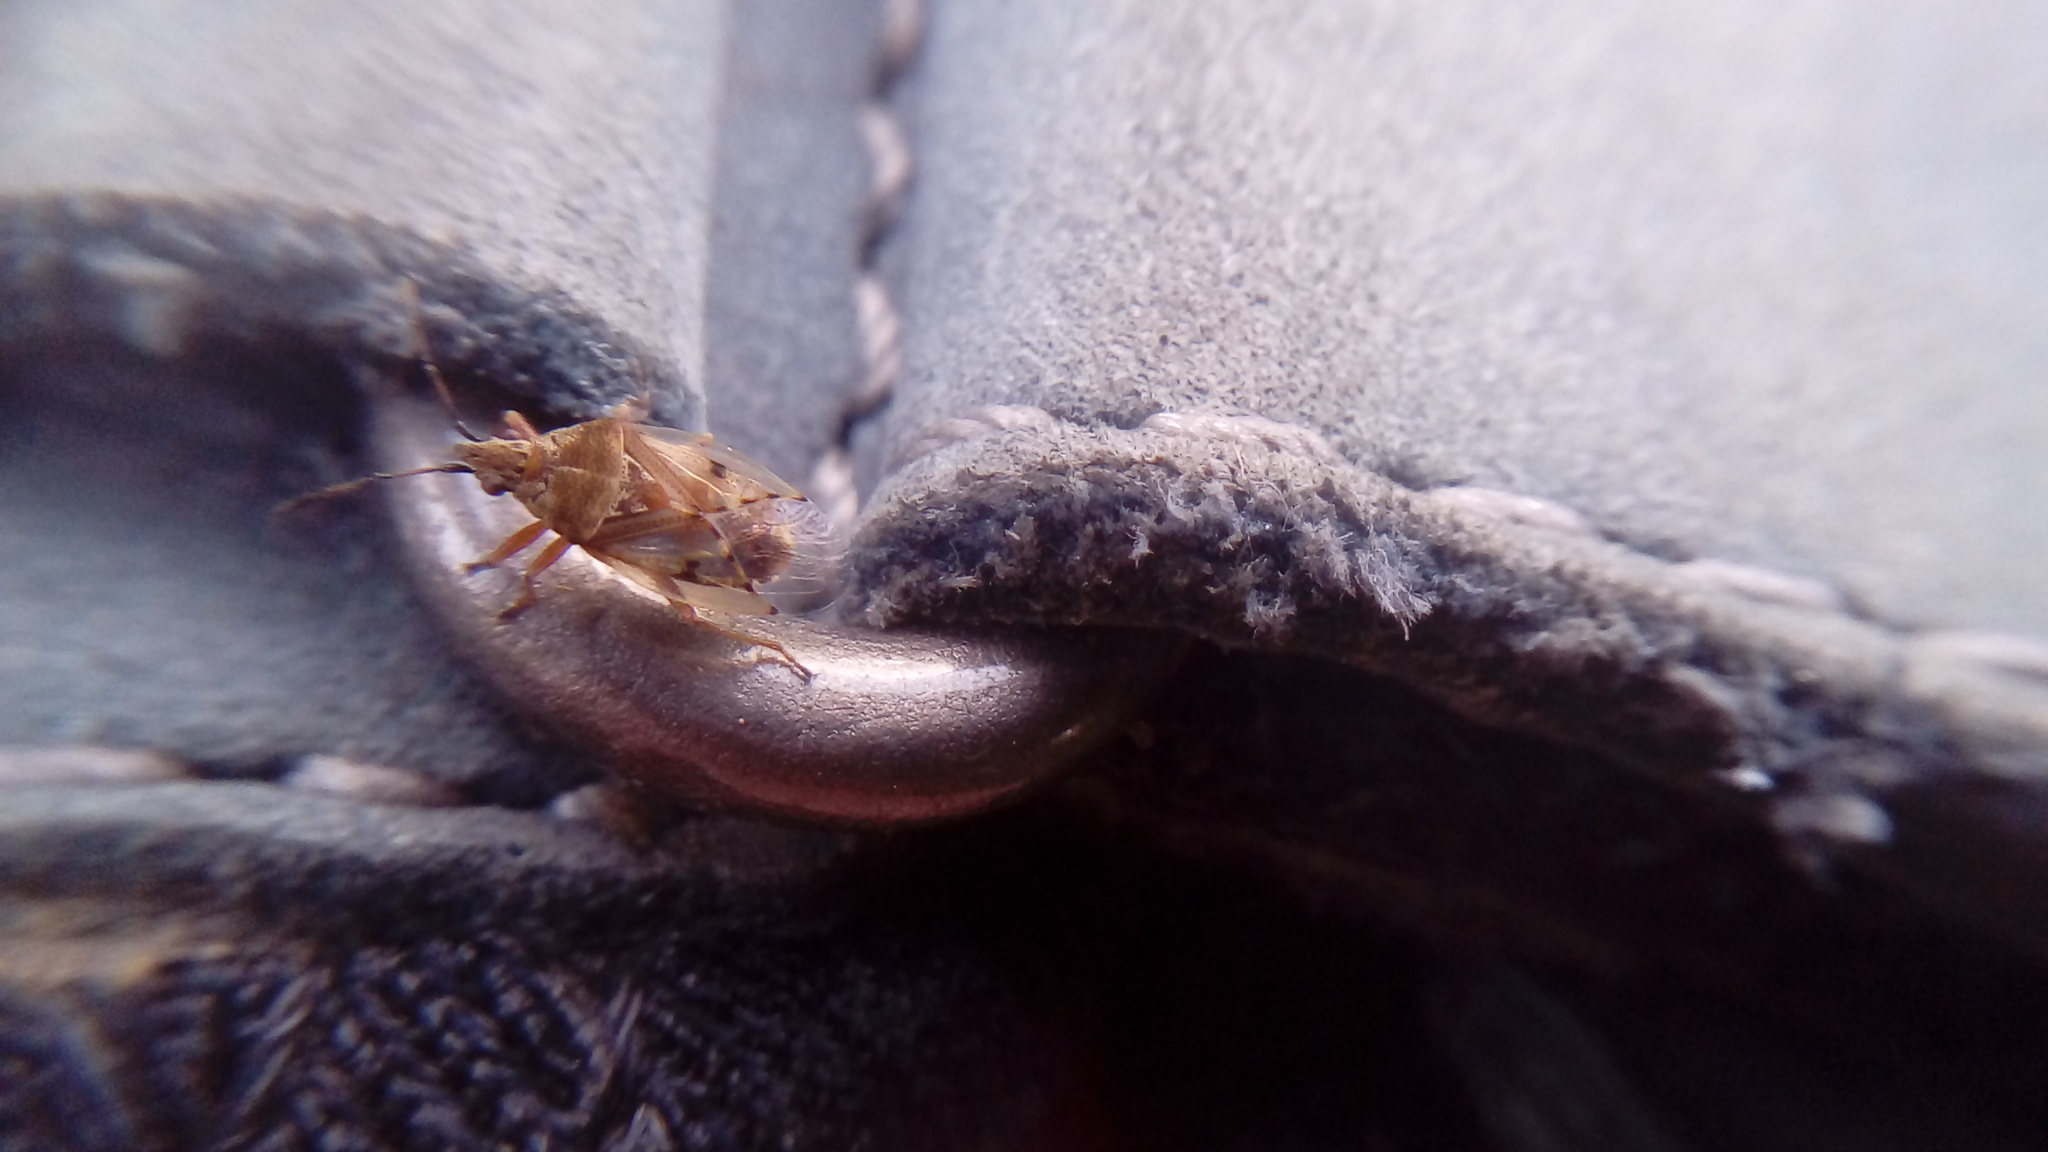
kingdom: Animalia
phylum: Arthropoda
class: Insecta
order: Hemiptera
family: Lygaeidae
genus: Kleidocerys
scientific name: Kleidocerys resedae
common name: Birch catkin bug
